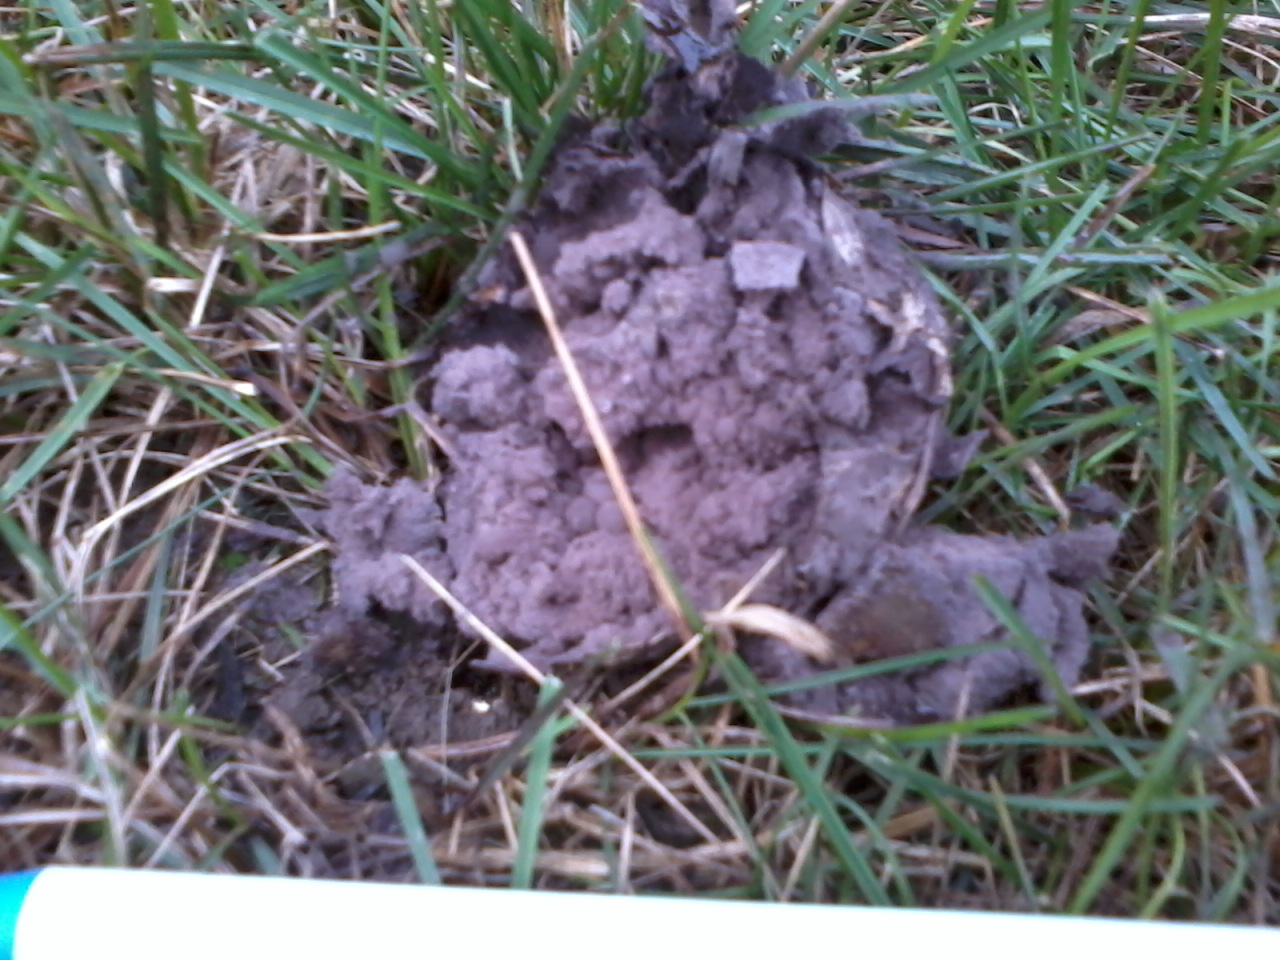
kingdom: Fungi
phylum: Basidiomycota
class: Agaricomycetes
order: Agaricales
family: Lycoperdaceae
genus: Calvatia
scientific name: Calvatia cyathiformis
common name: Purple-spored puffball
